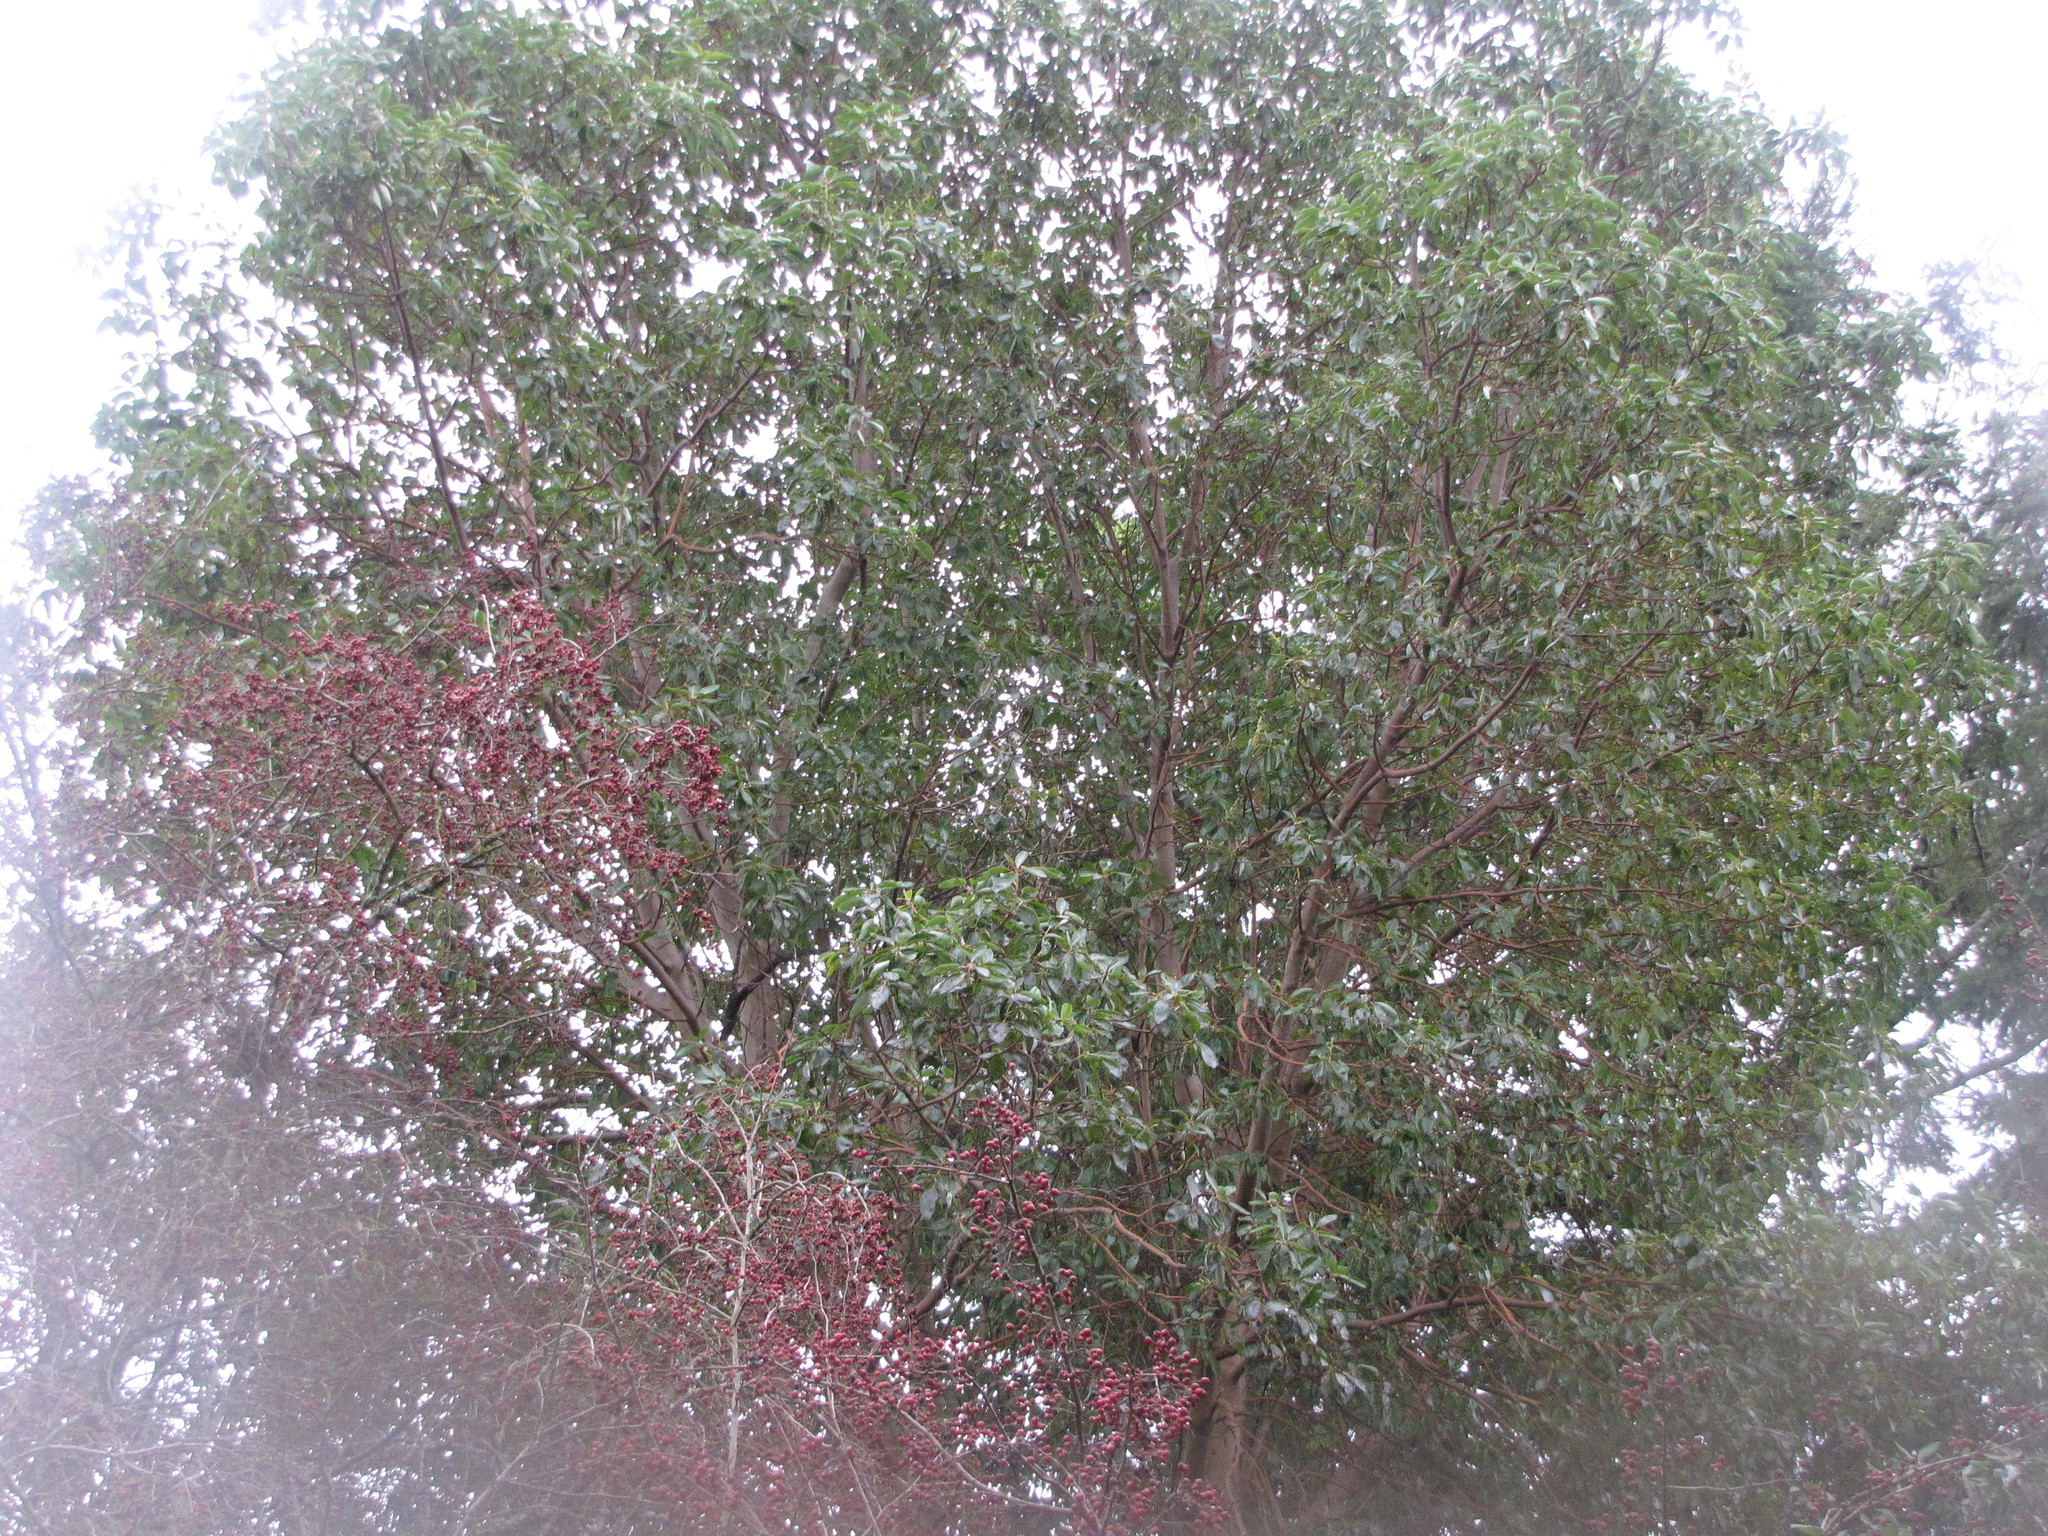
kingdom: Plantae
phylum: Tracheophyta
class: Magnoliopsida
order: Ericales
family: Ericaceae
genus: Arbutus
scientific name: Arbutus menziesii
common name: Pacific madrone
